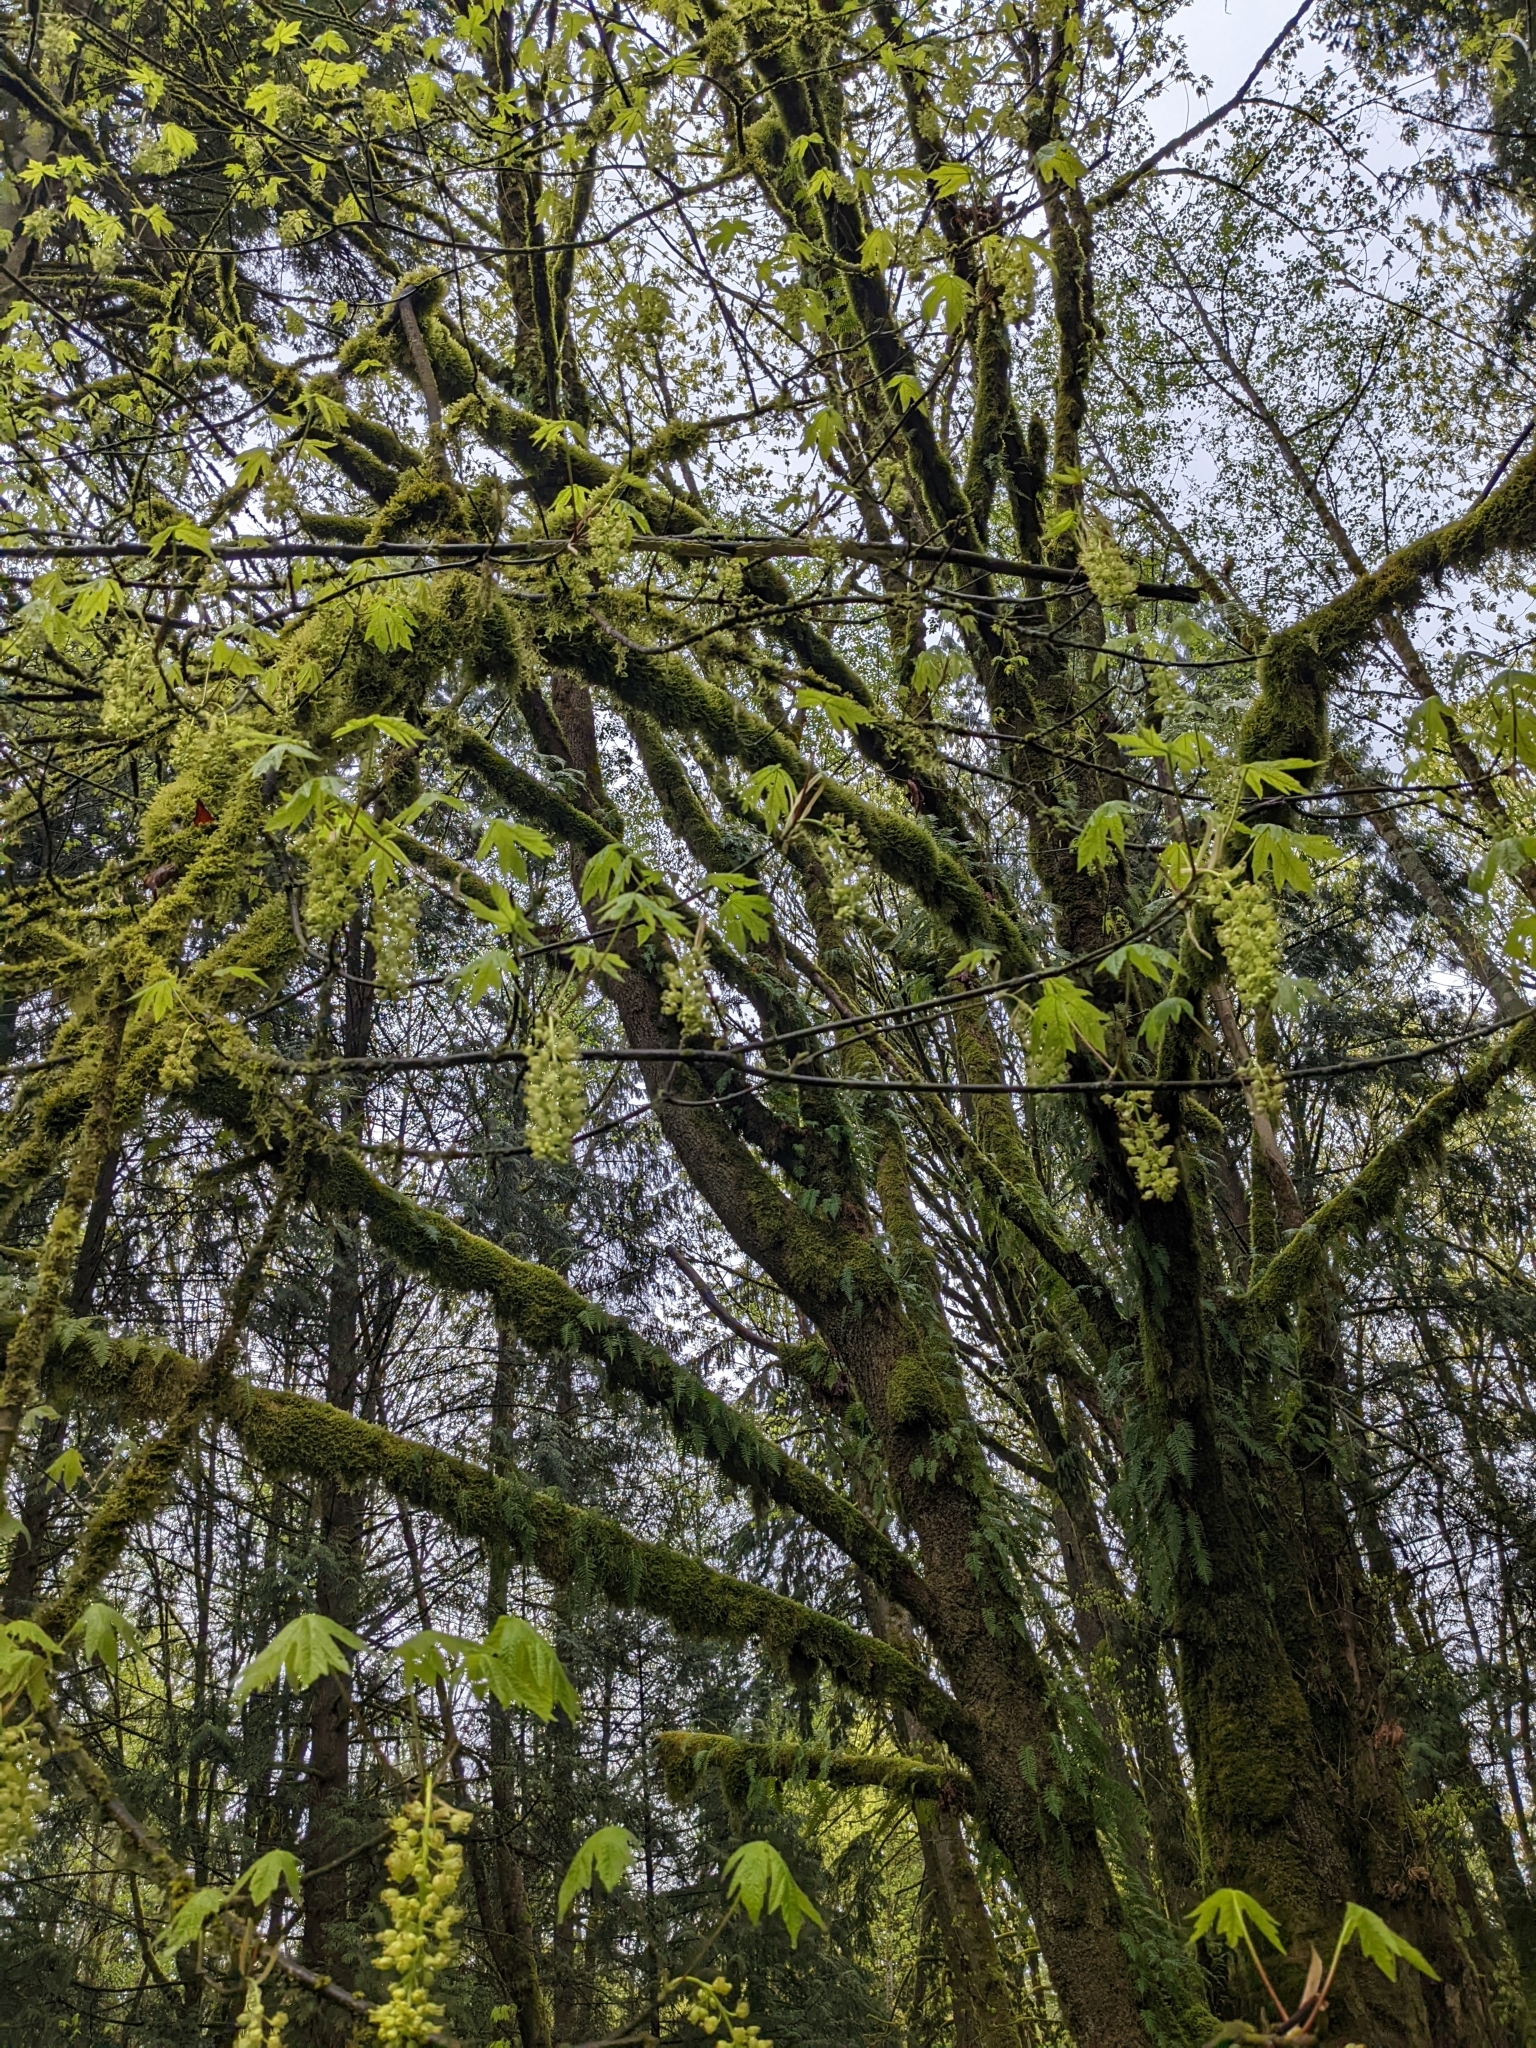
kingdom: Plantae
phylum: Tracheophyta
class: Magnoliopsida
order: Sapindales
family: Sapindaceae
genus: Acer
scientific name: Acer macrophyllum
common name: Oregon maple
